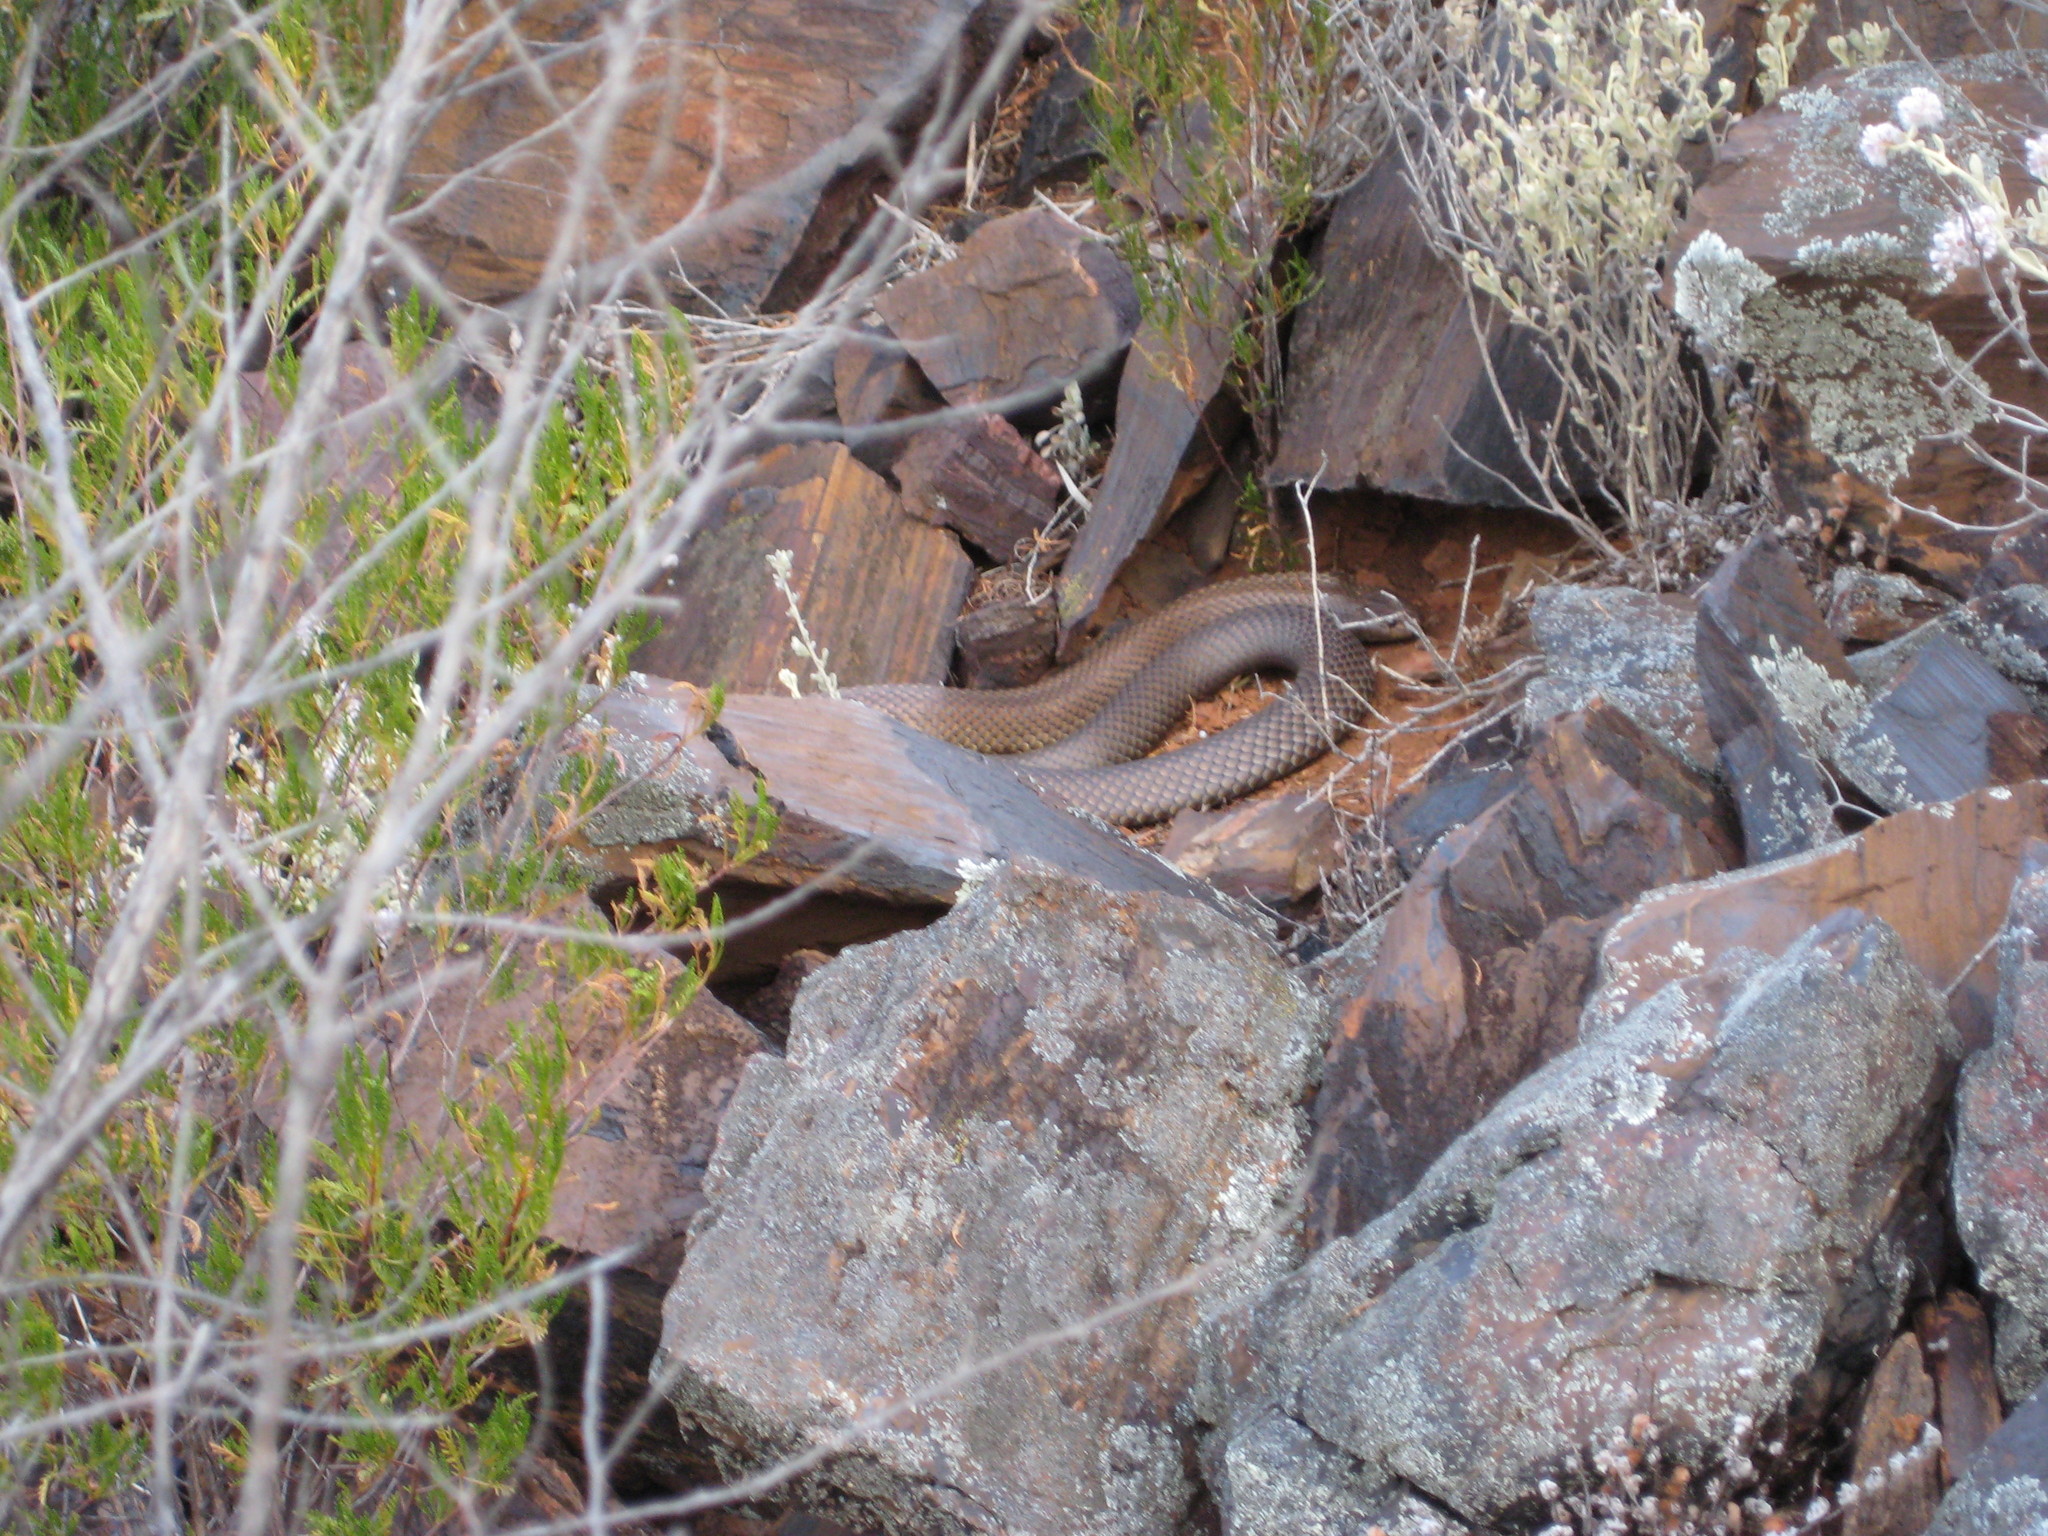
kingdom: Animalia
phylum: Chordata
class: Squamata
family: Elapidae
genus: Pseudechis
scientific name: Pseudechis australis
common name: King brown snake
